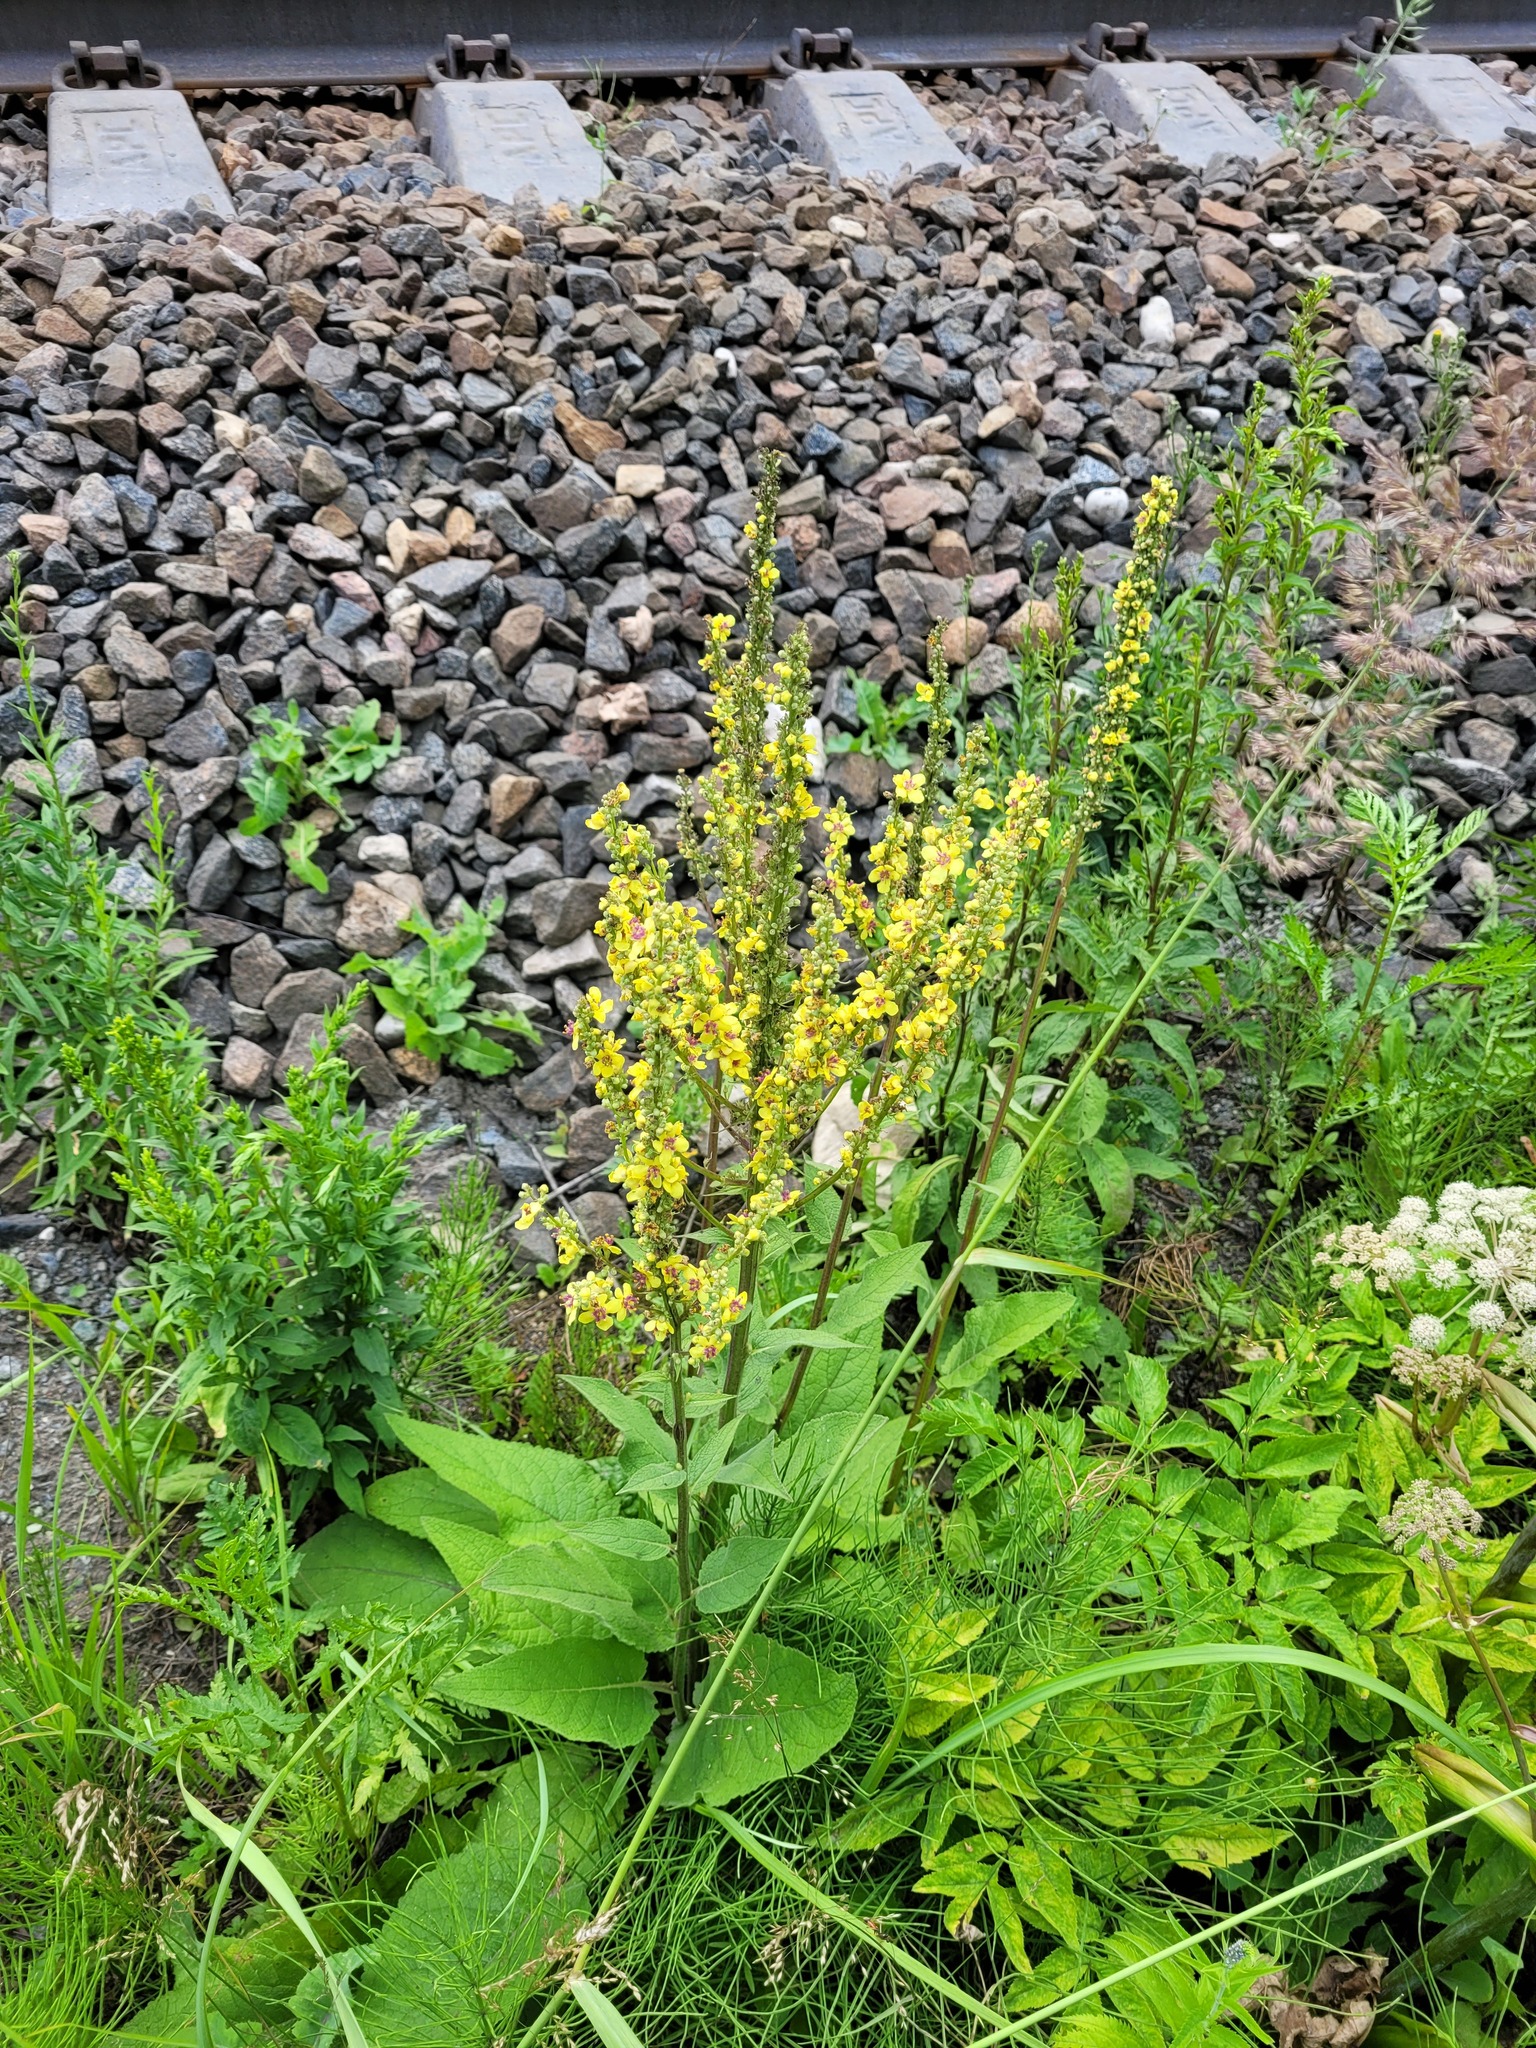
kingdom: Plantae
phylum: Tracheophyta
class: Magnoliopsida
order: Lamiales
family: Scrophulariaceae
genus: Verbascum
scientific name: Verbascum nigrum
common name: Dark mullein
